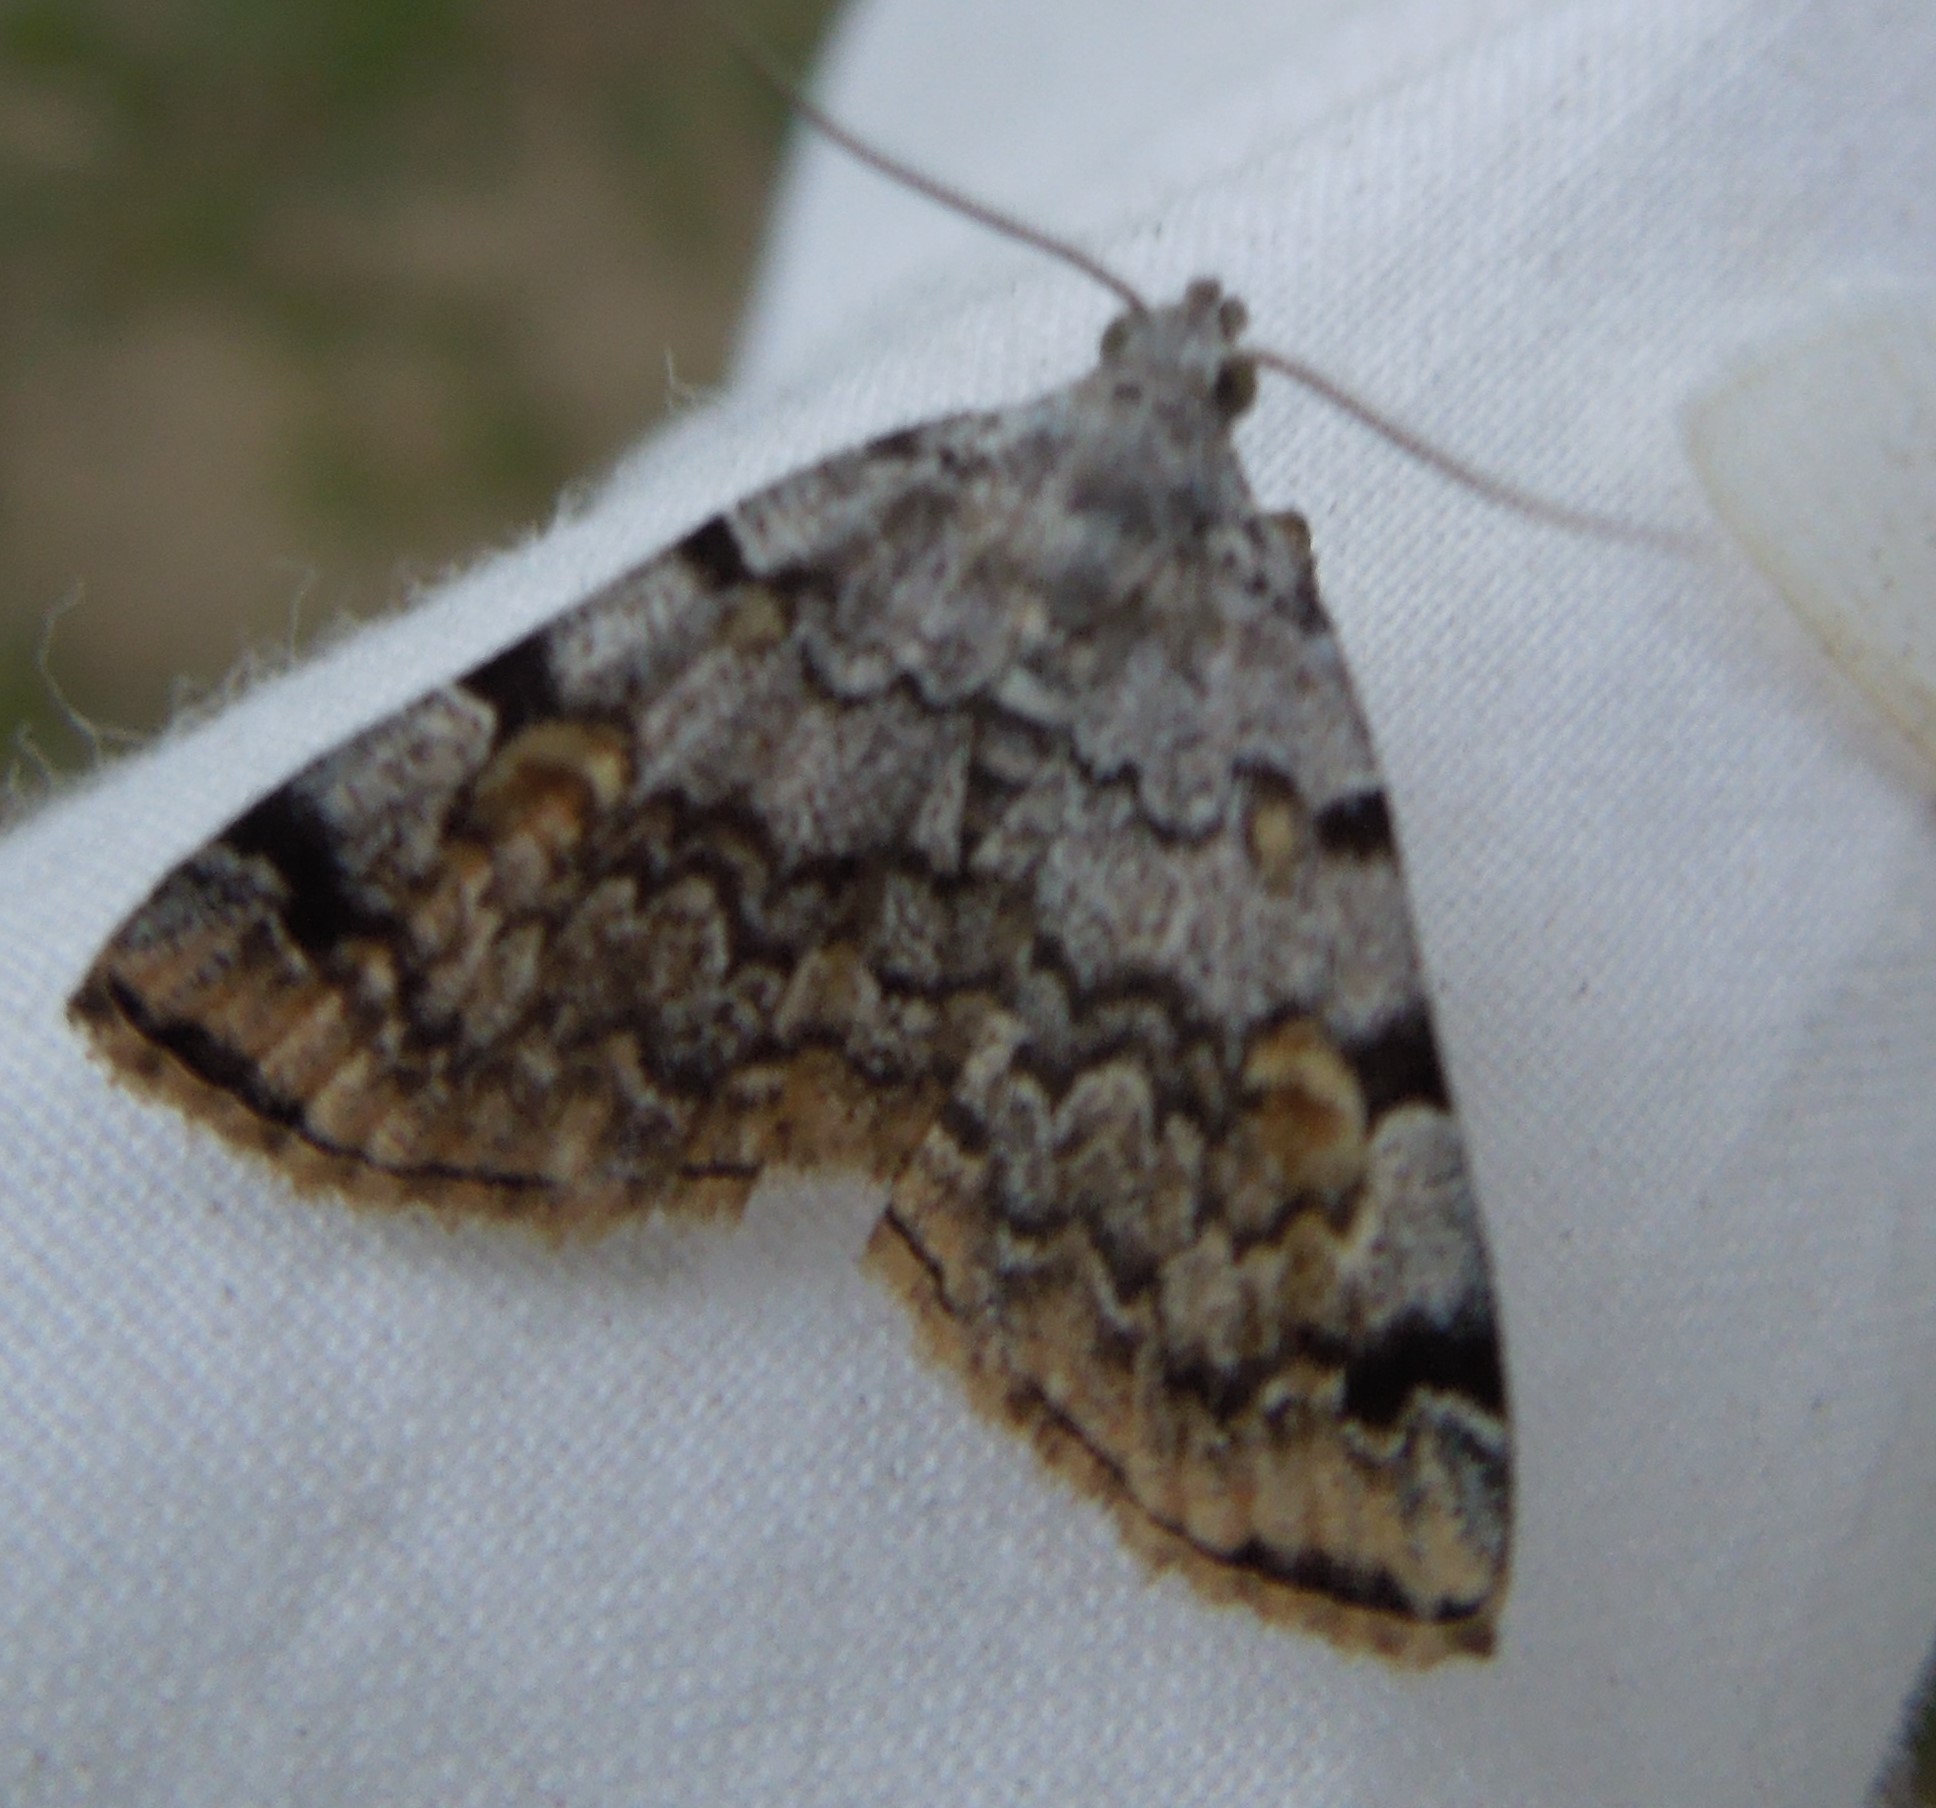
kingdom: Animalia
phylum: Arthropoda
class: Insecta
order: Lepidoptera
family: Erebidae
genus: Idia
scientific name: Idia americalis
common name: American idia moth
